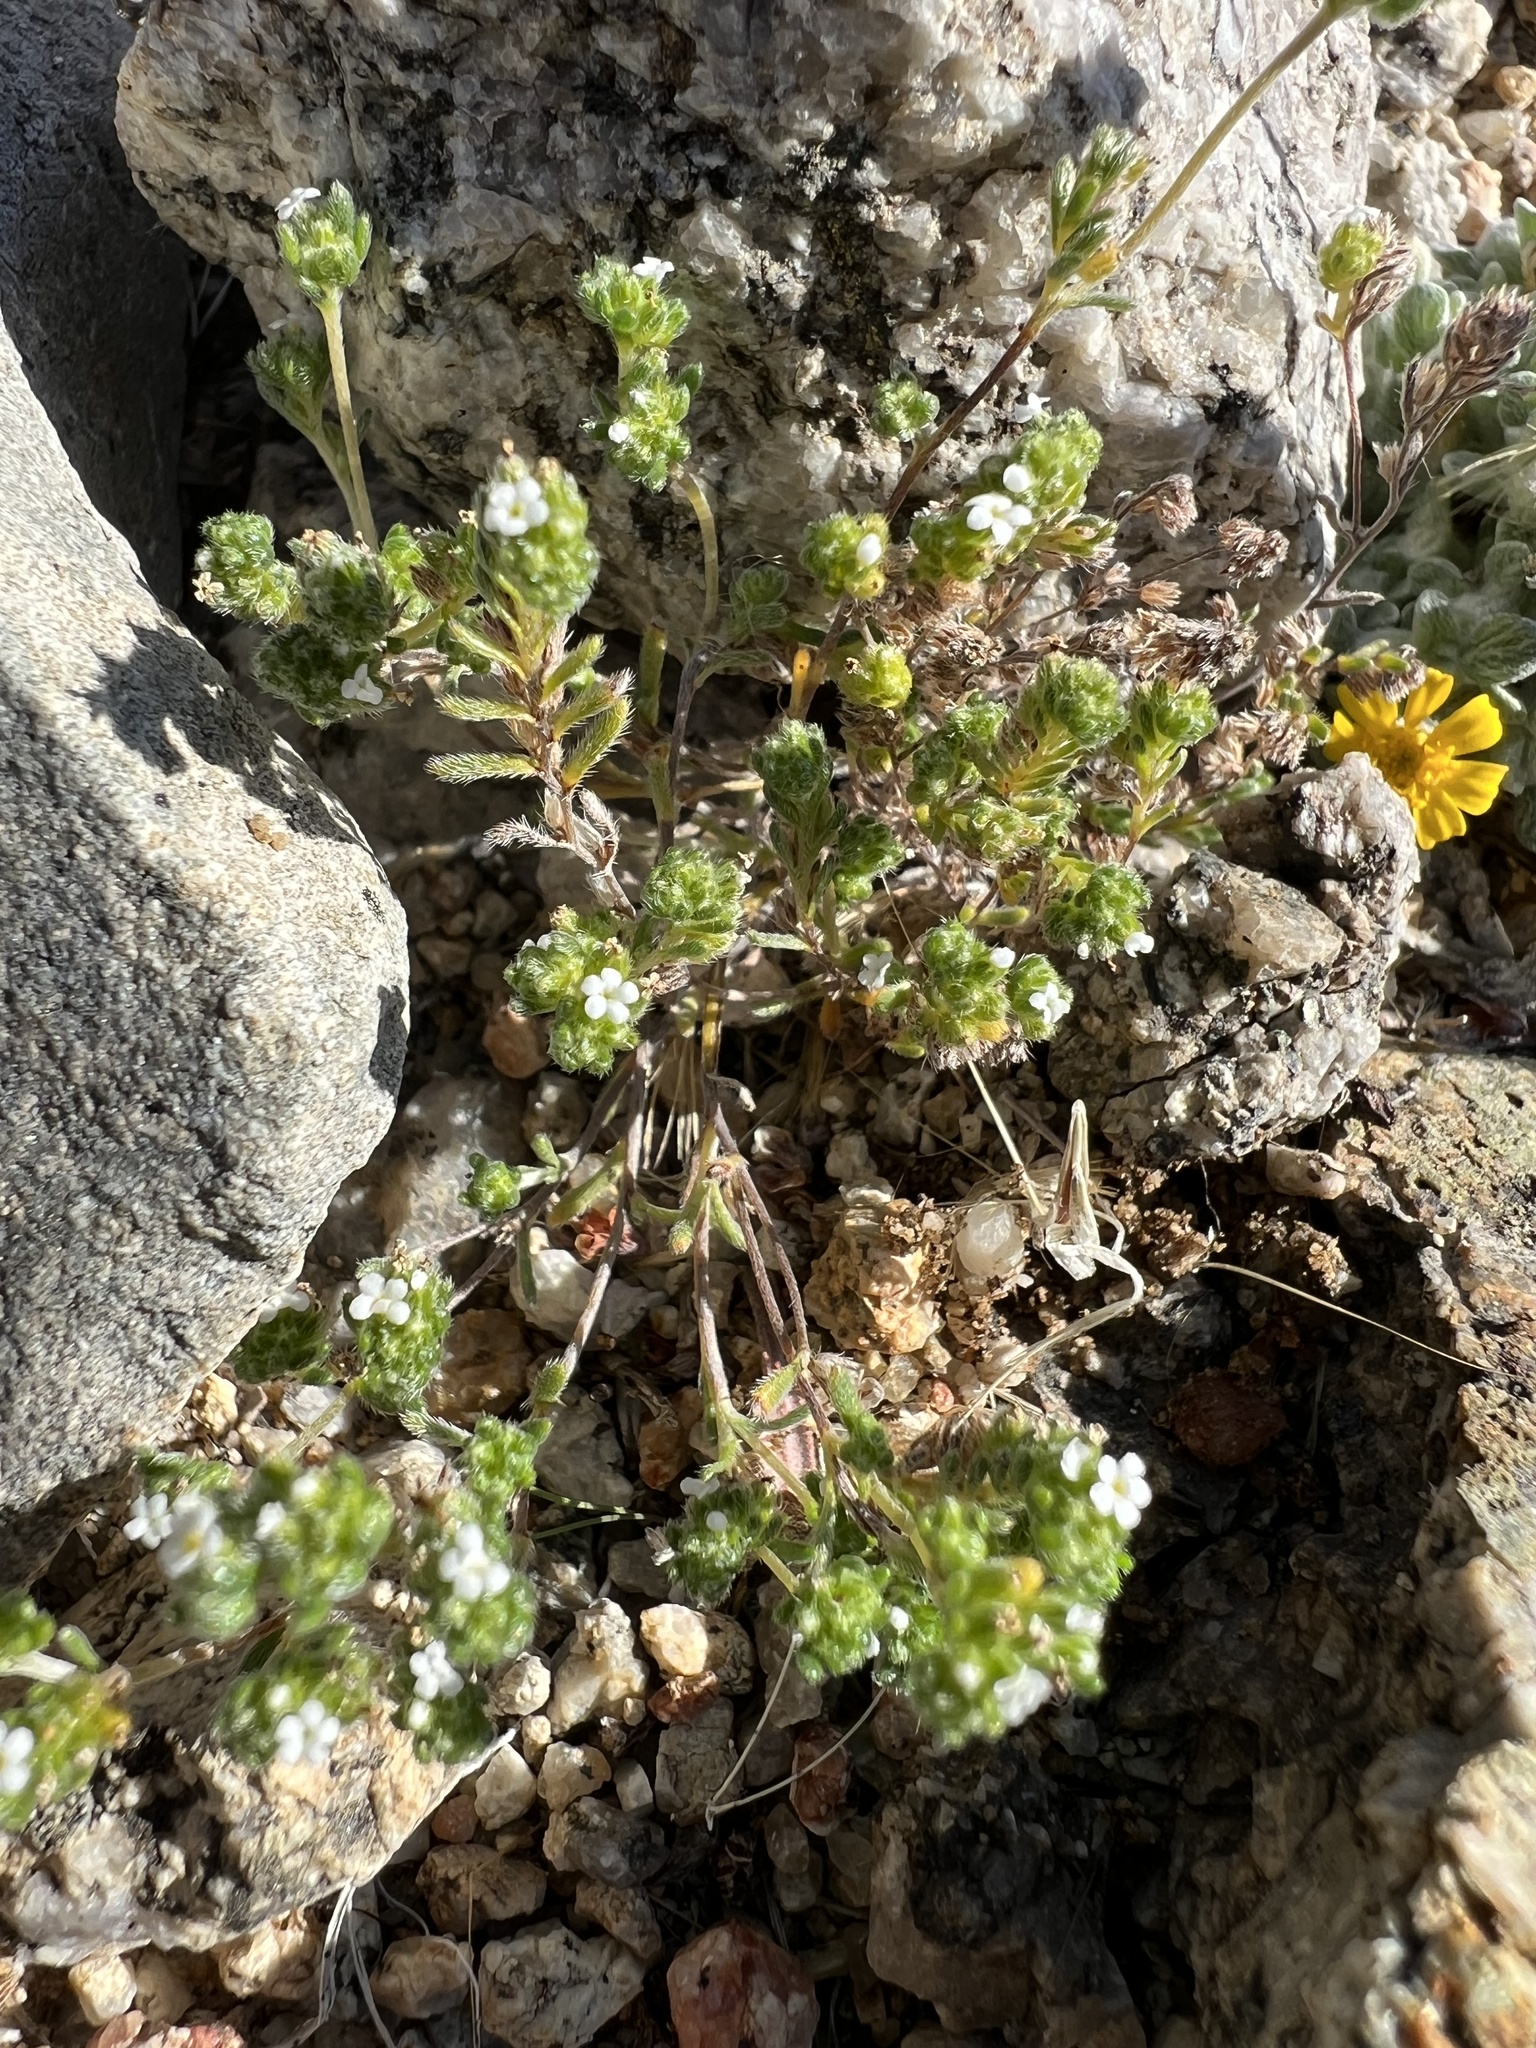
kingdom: Plantae
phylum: Tracheophyta
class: Magnoliopsida
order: Boraginales
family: Boraginaceae
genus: Eremocarya
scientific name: Eremocarya micrantha
